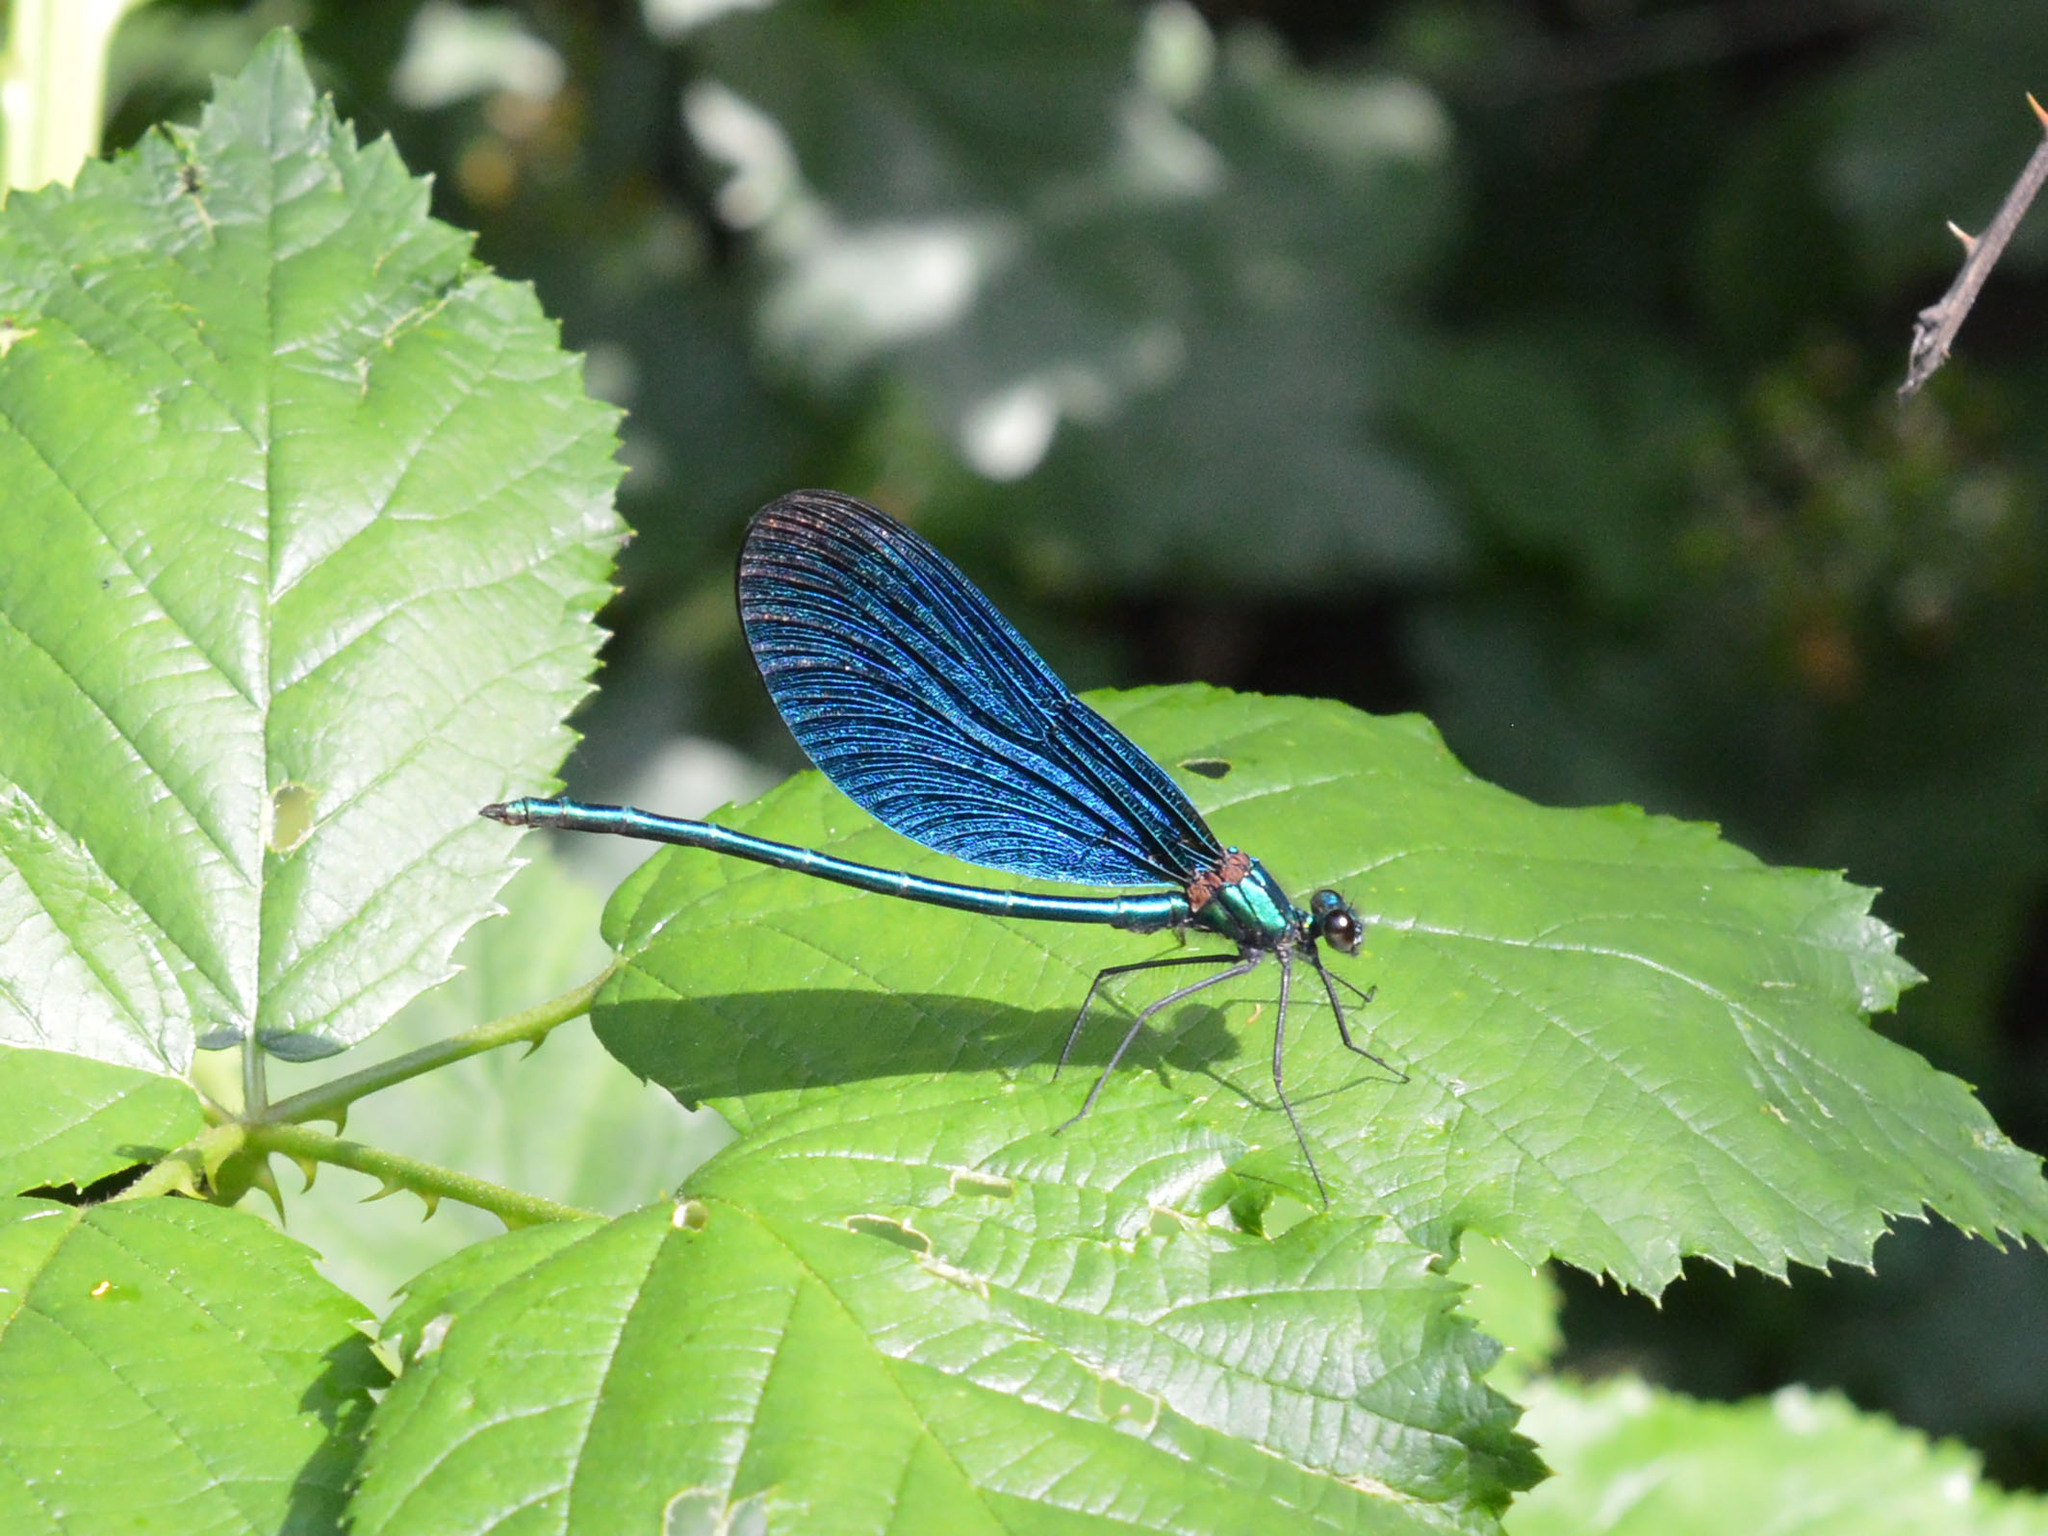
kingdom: Animalia
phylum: Arthropoda
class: Insecta
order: Odonata
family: Calopterygidae
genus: Calopteryx
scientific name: Calopteryx virgo
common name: Beautiful demoiselle
